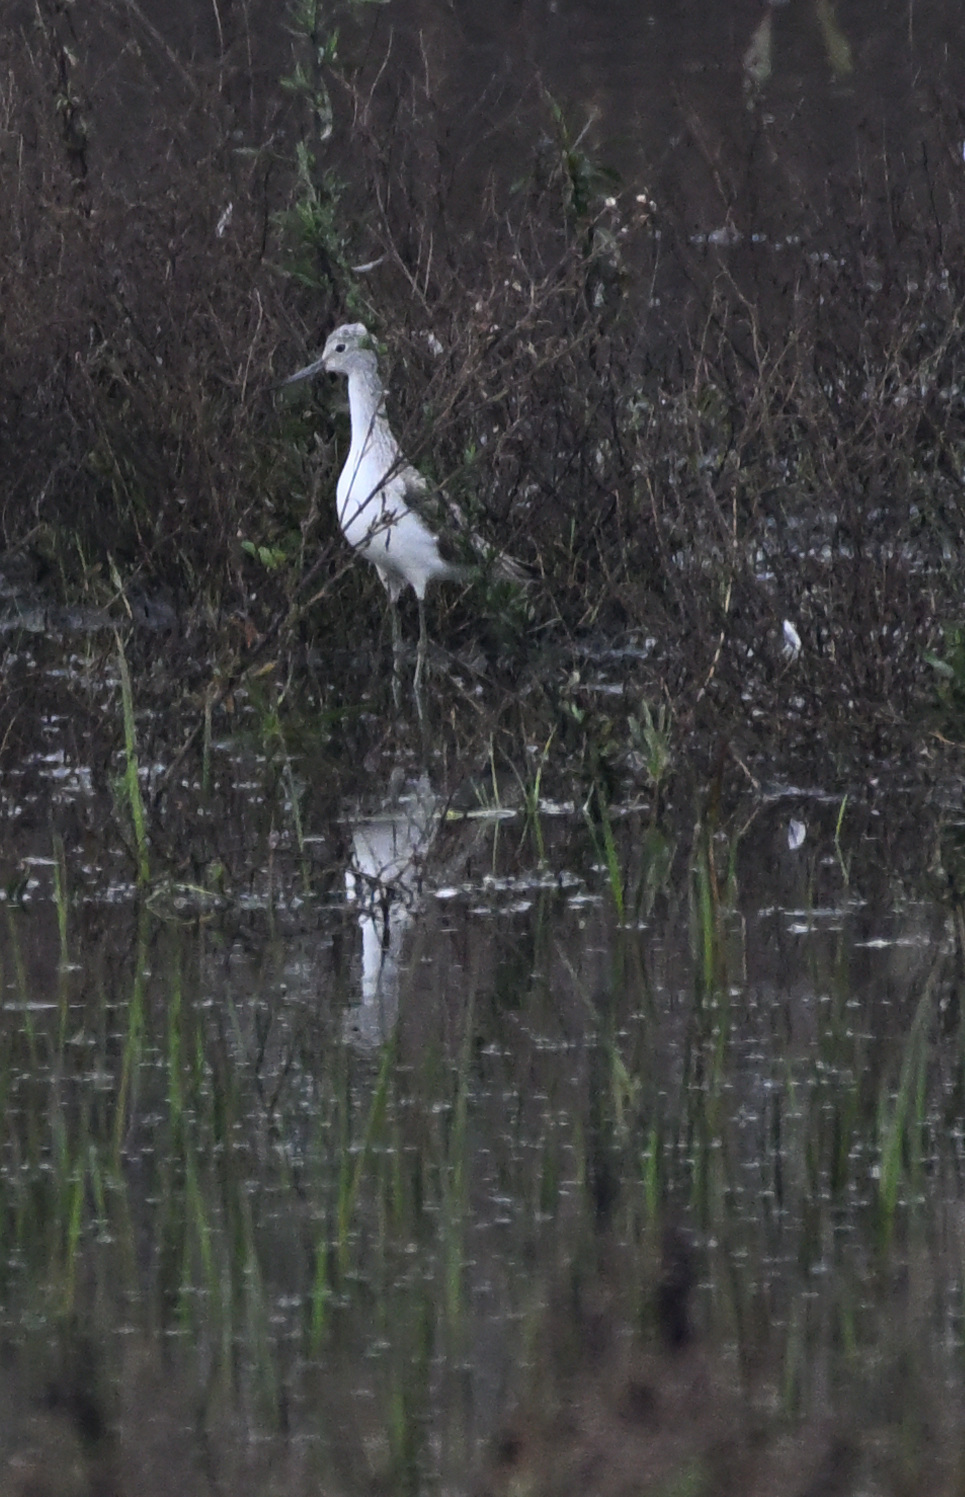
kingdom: Animalia
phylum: Chordata
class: Aves
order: Charadriiformes
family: Scolopacidae
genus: Tringa
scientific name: Tringa nebularia
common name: Common greenshank
